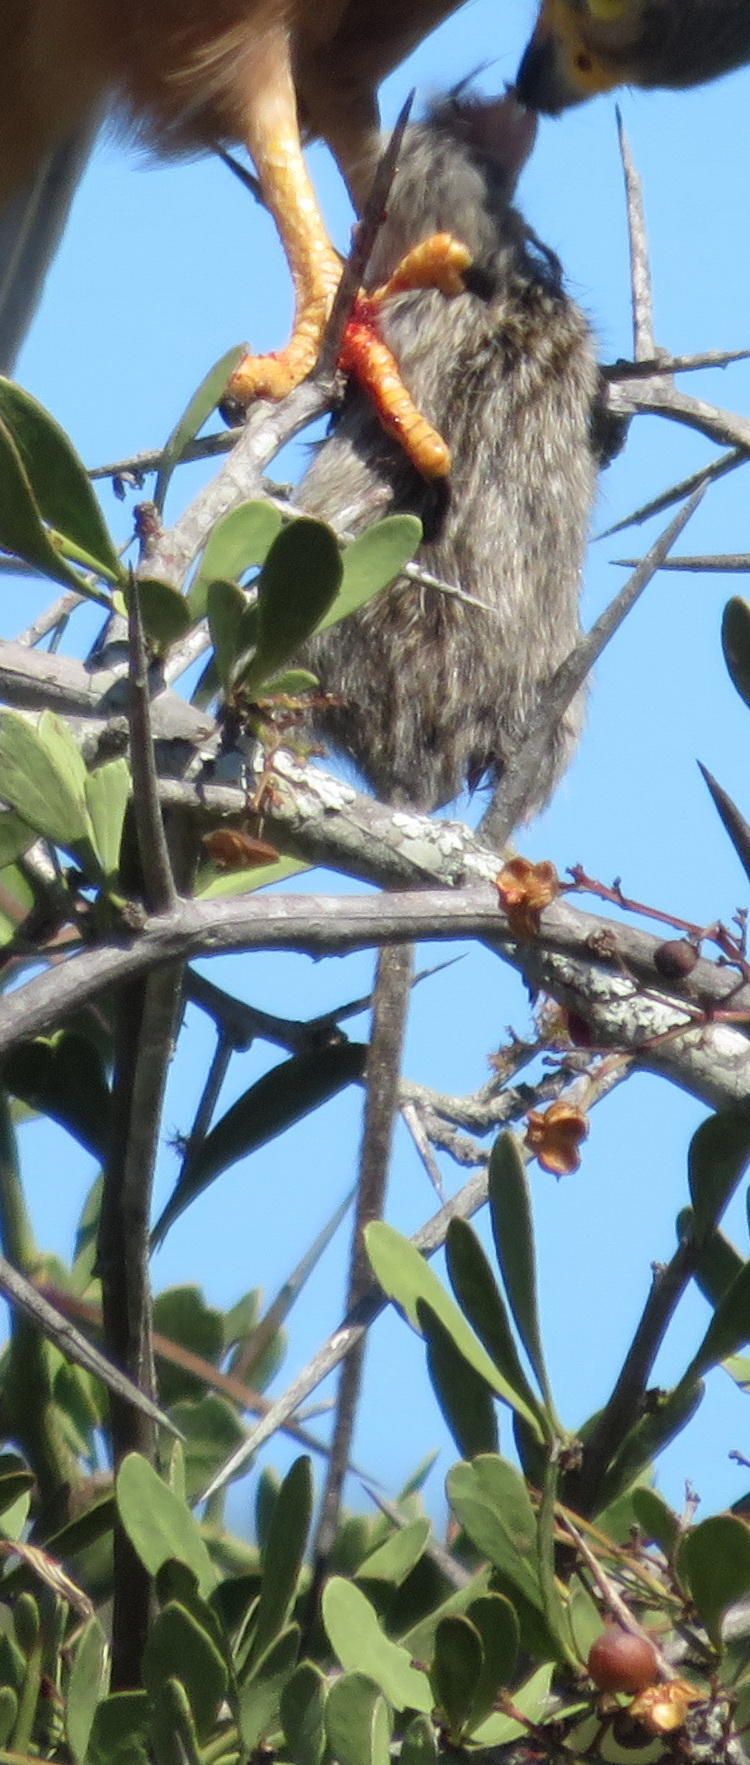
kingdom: Animalia
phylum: Chordata
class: Mammalia
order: Rodentia
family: Muridae
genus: Rhabdomys
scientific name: Rhabdomys pumilio
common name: Xeric four-striped grass rat
